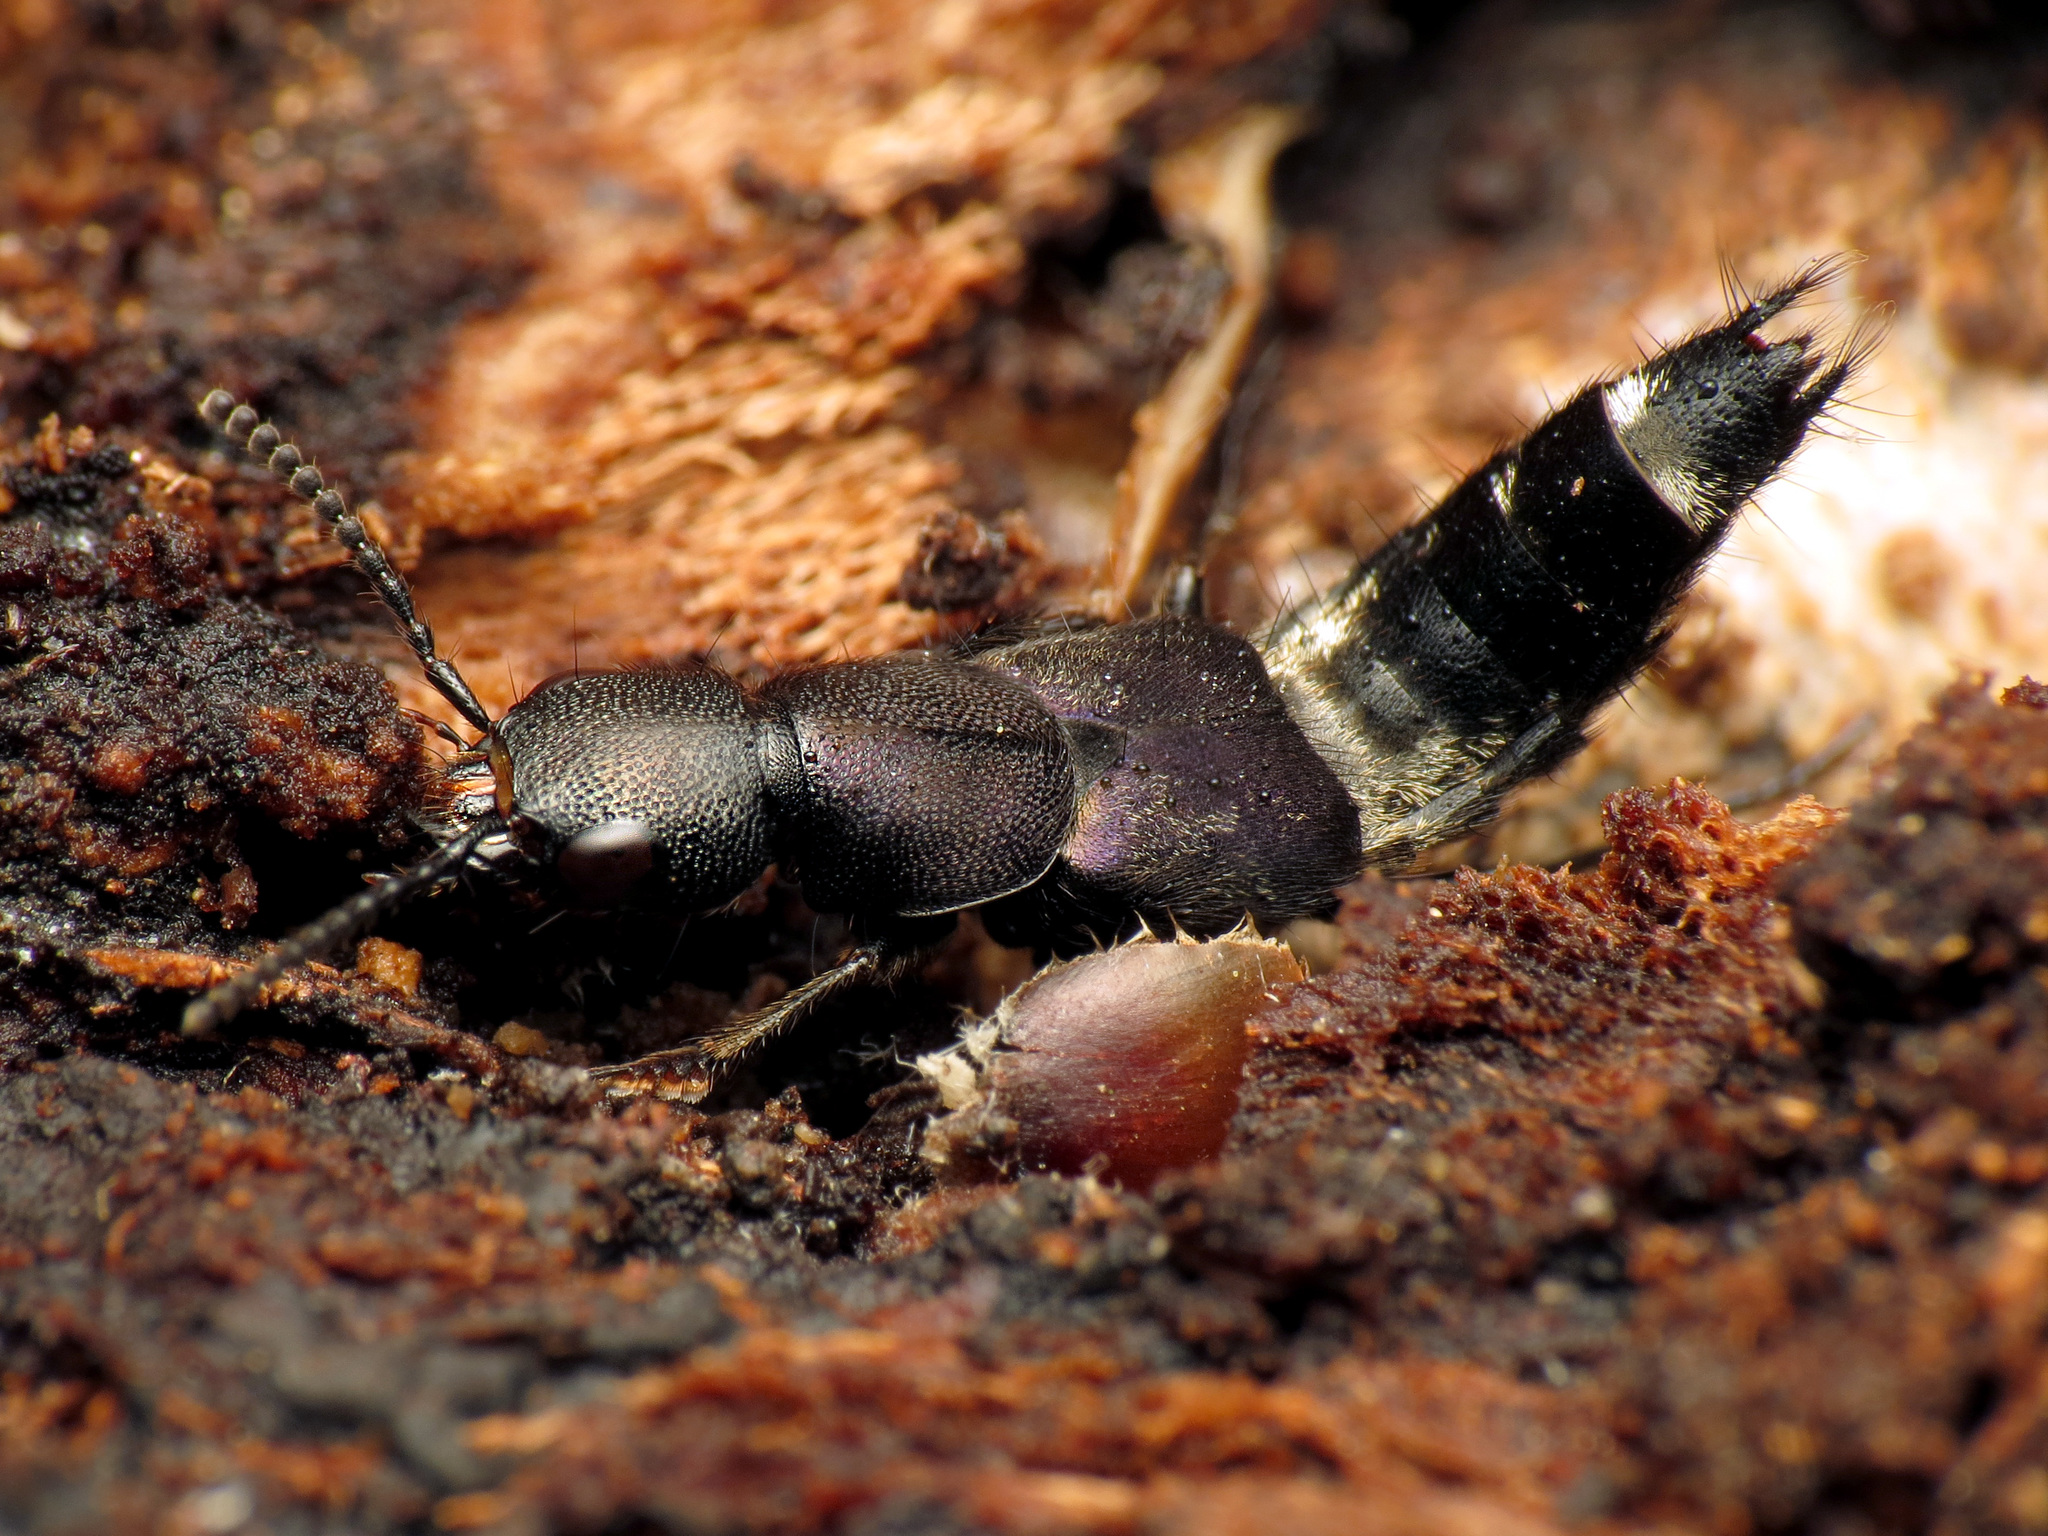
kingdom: Animalia
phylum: Arthropoda
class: Insecta
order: Coleoptera
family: Staphylinidae
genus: Platydracus
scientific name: Platydracus violaceus
